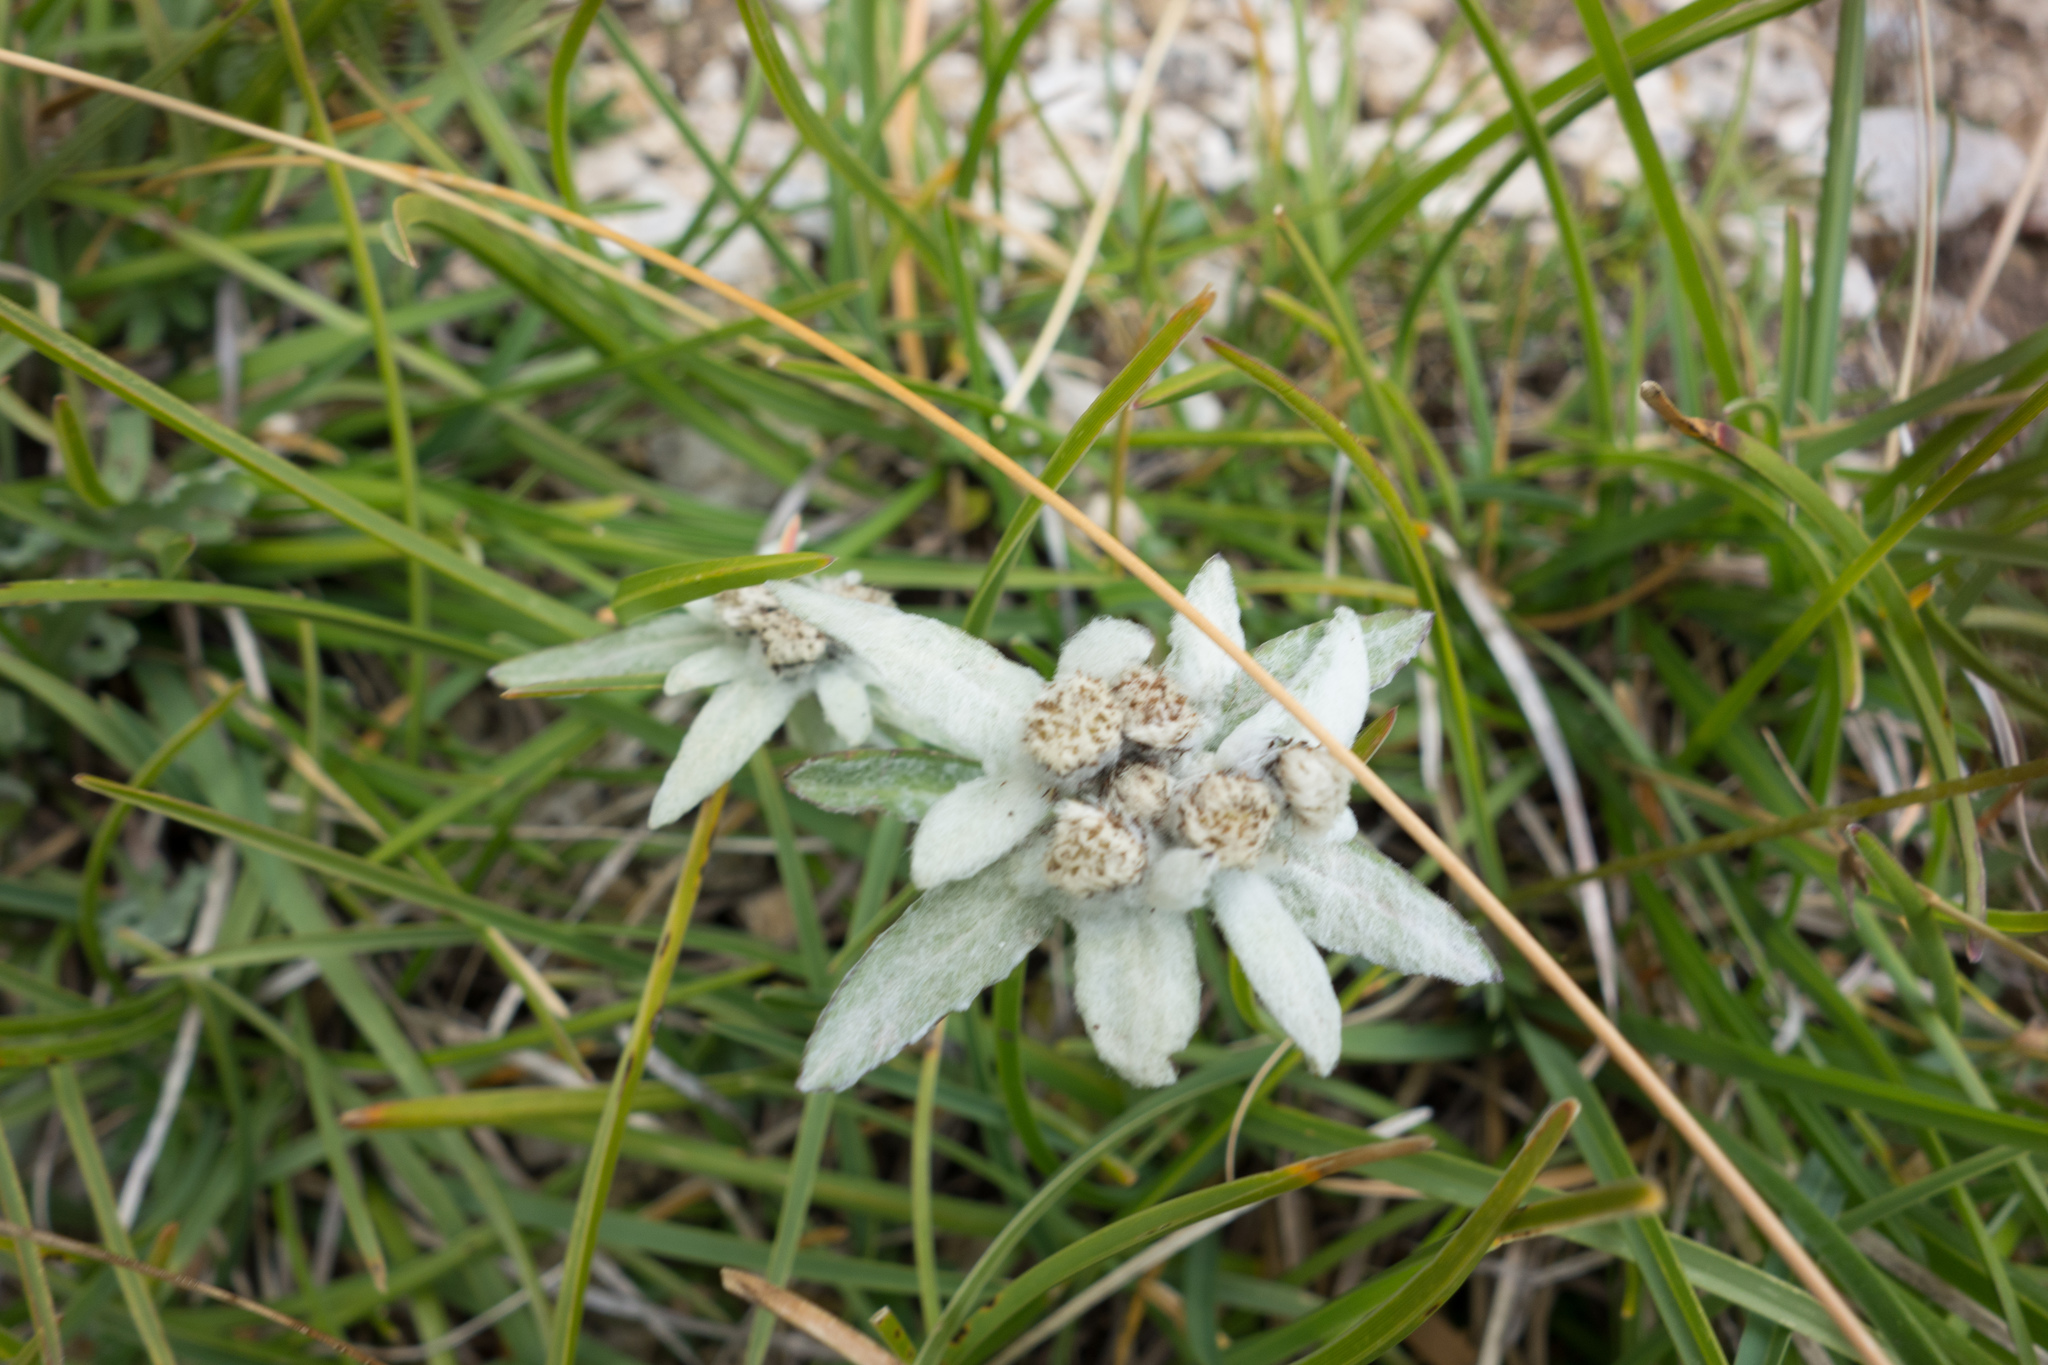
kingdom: Plantae
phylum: Tracheophyta
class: Magnoliopsida
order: Asterales
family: Asteraceae
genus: Leontopodium
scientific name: Leontopodium nivale
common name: Edelweiss
